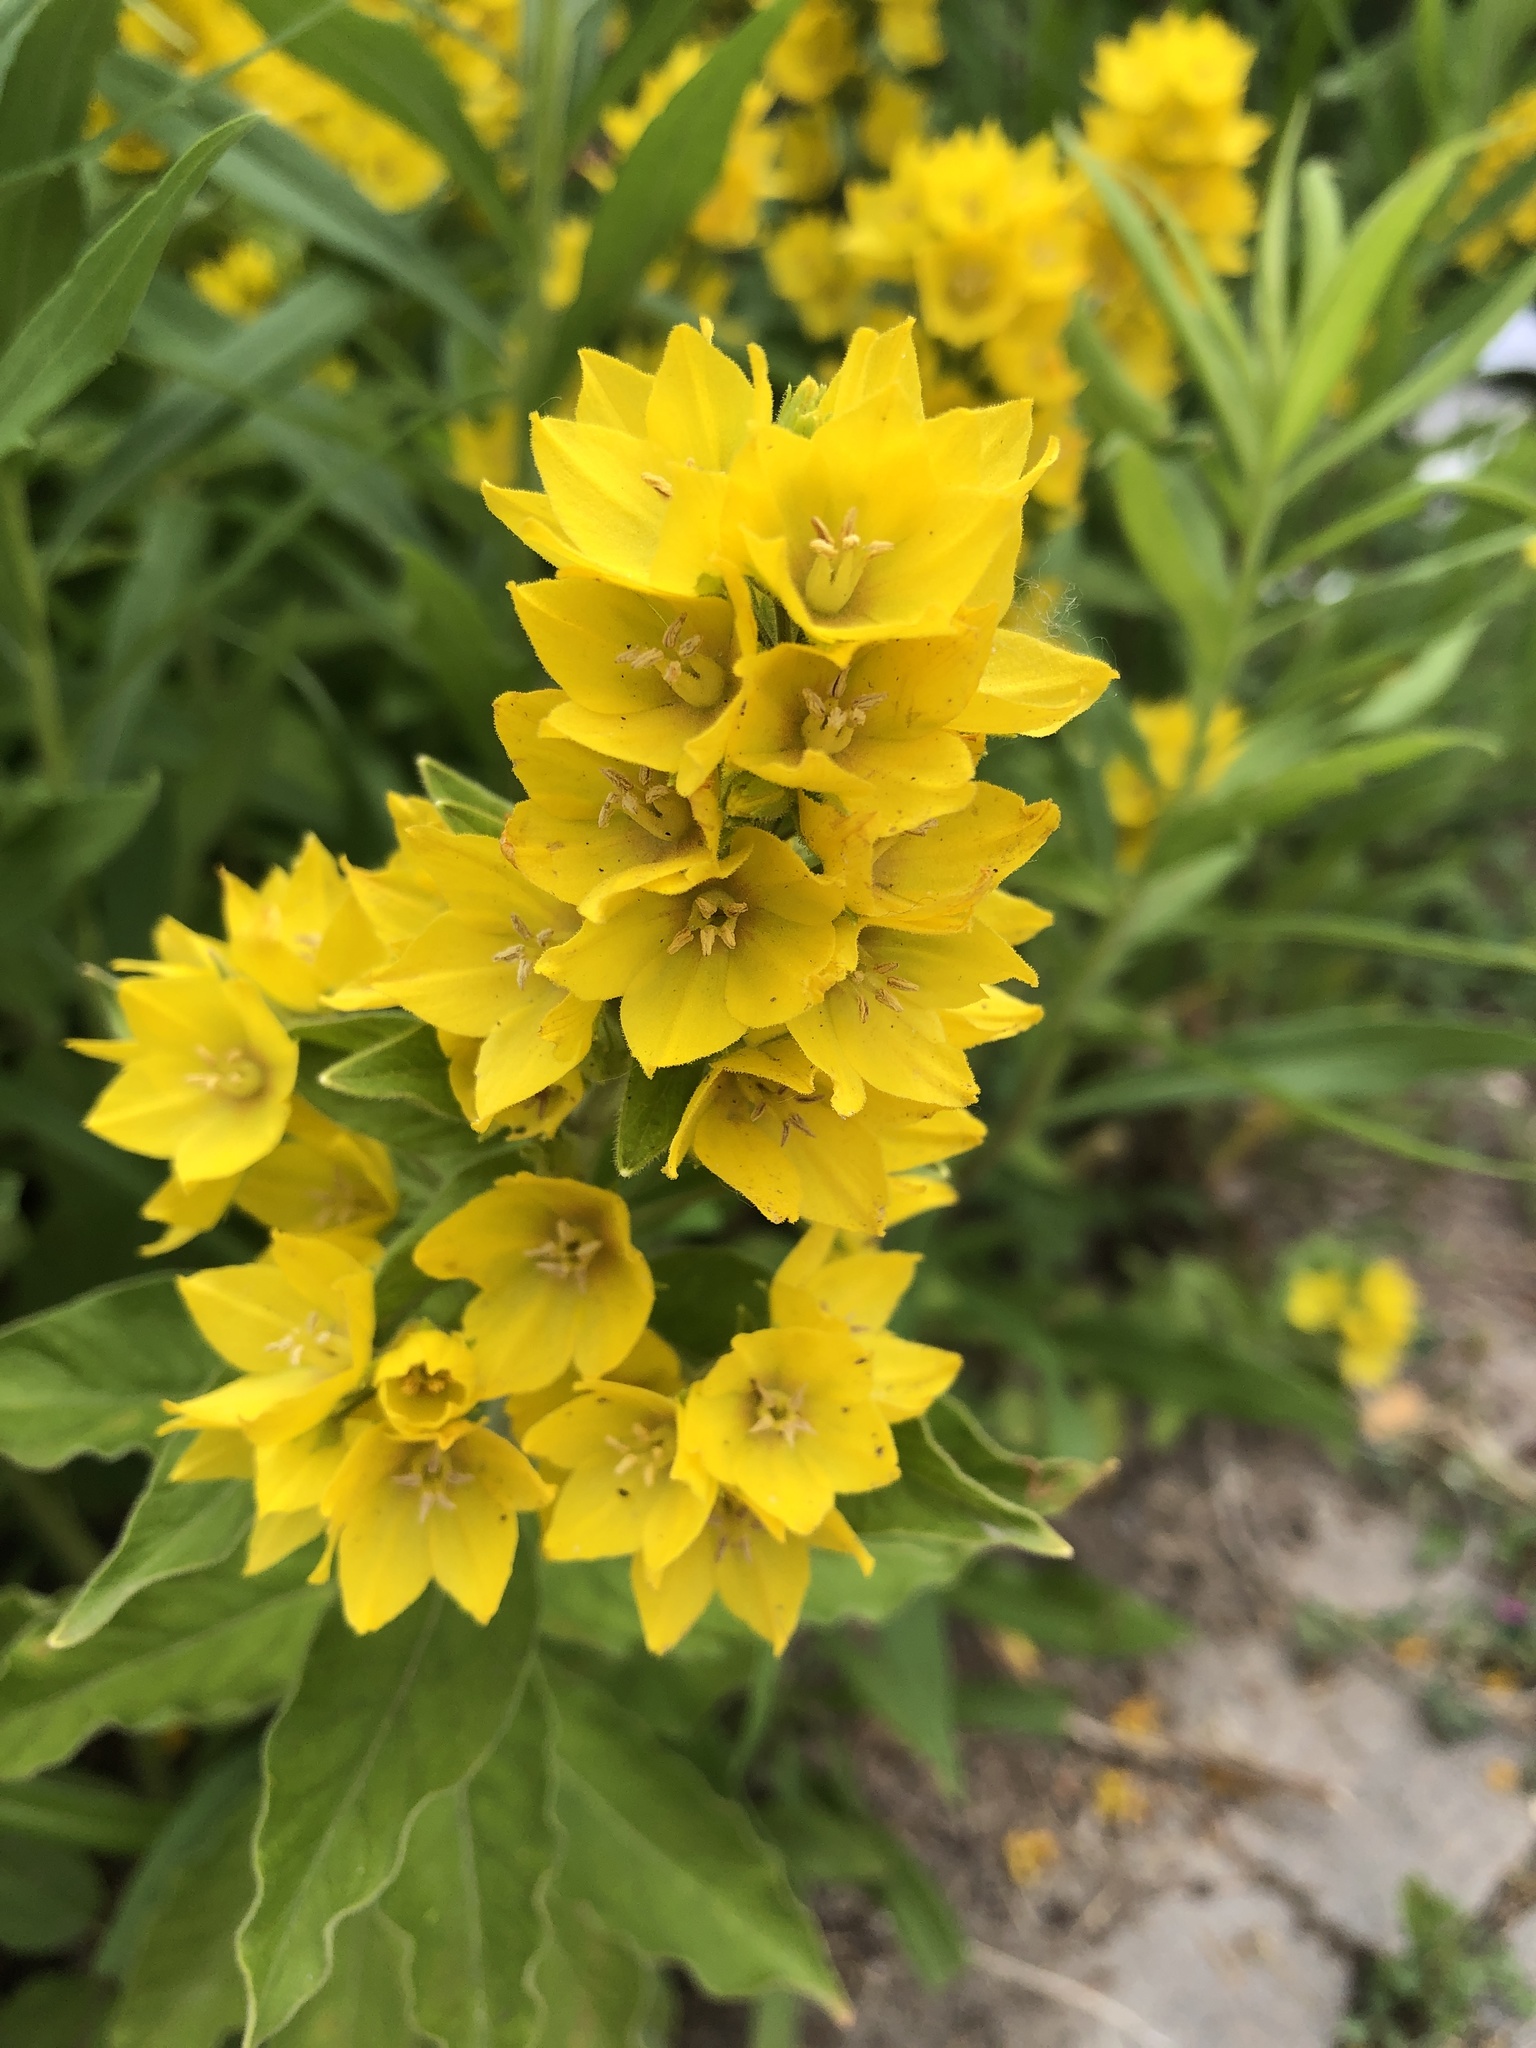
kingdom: Plantae
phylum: Tracheophyta
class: Magnoliopsida
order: Ericales
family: Primulaceae
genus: Lysimachia
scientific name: Lysimachia punctata
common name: Dotted loosestrife
